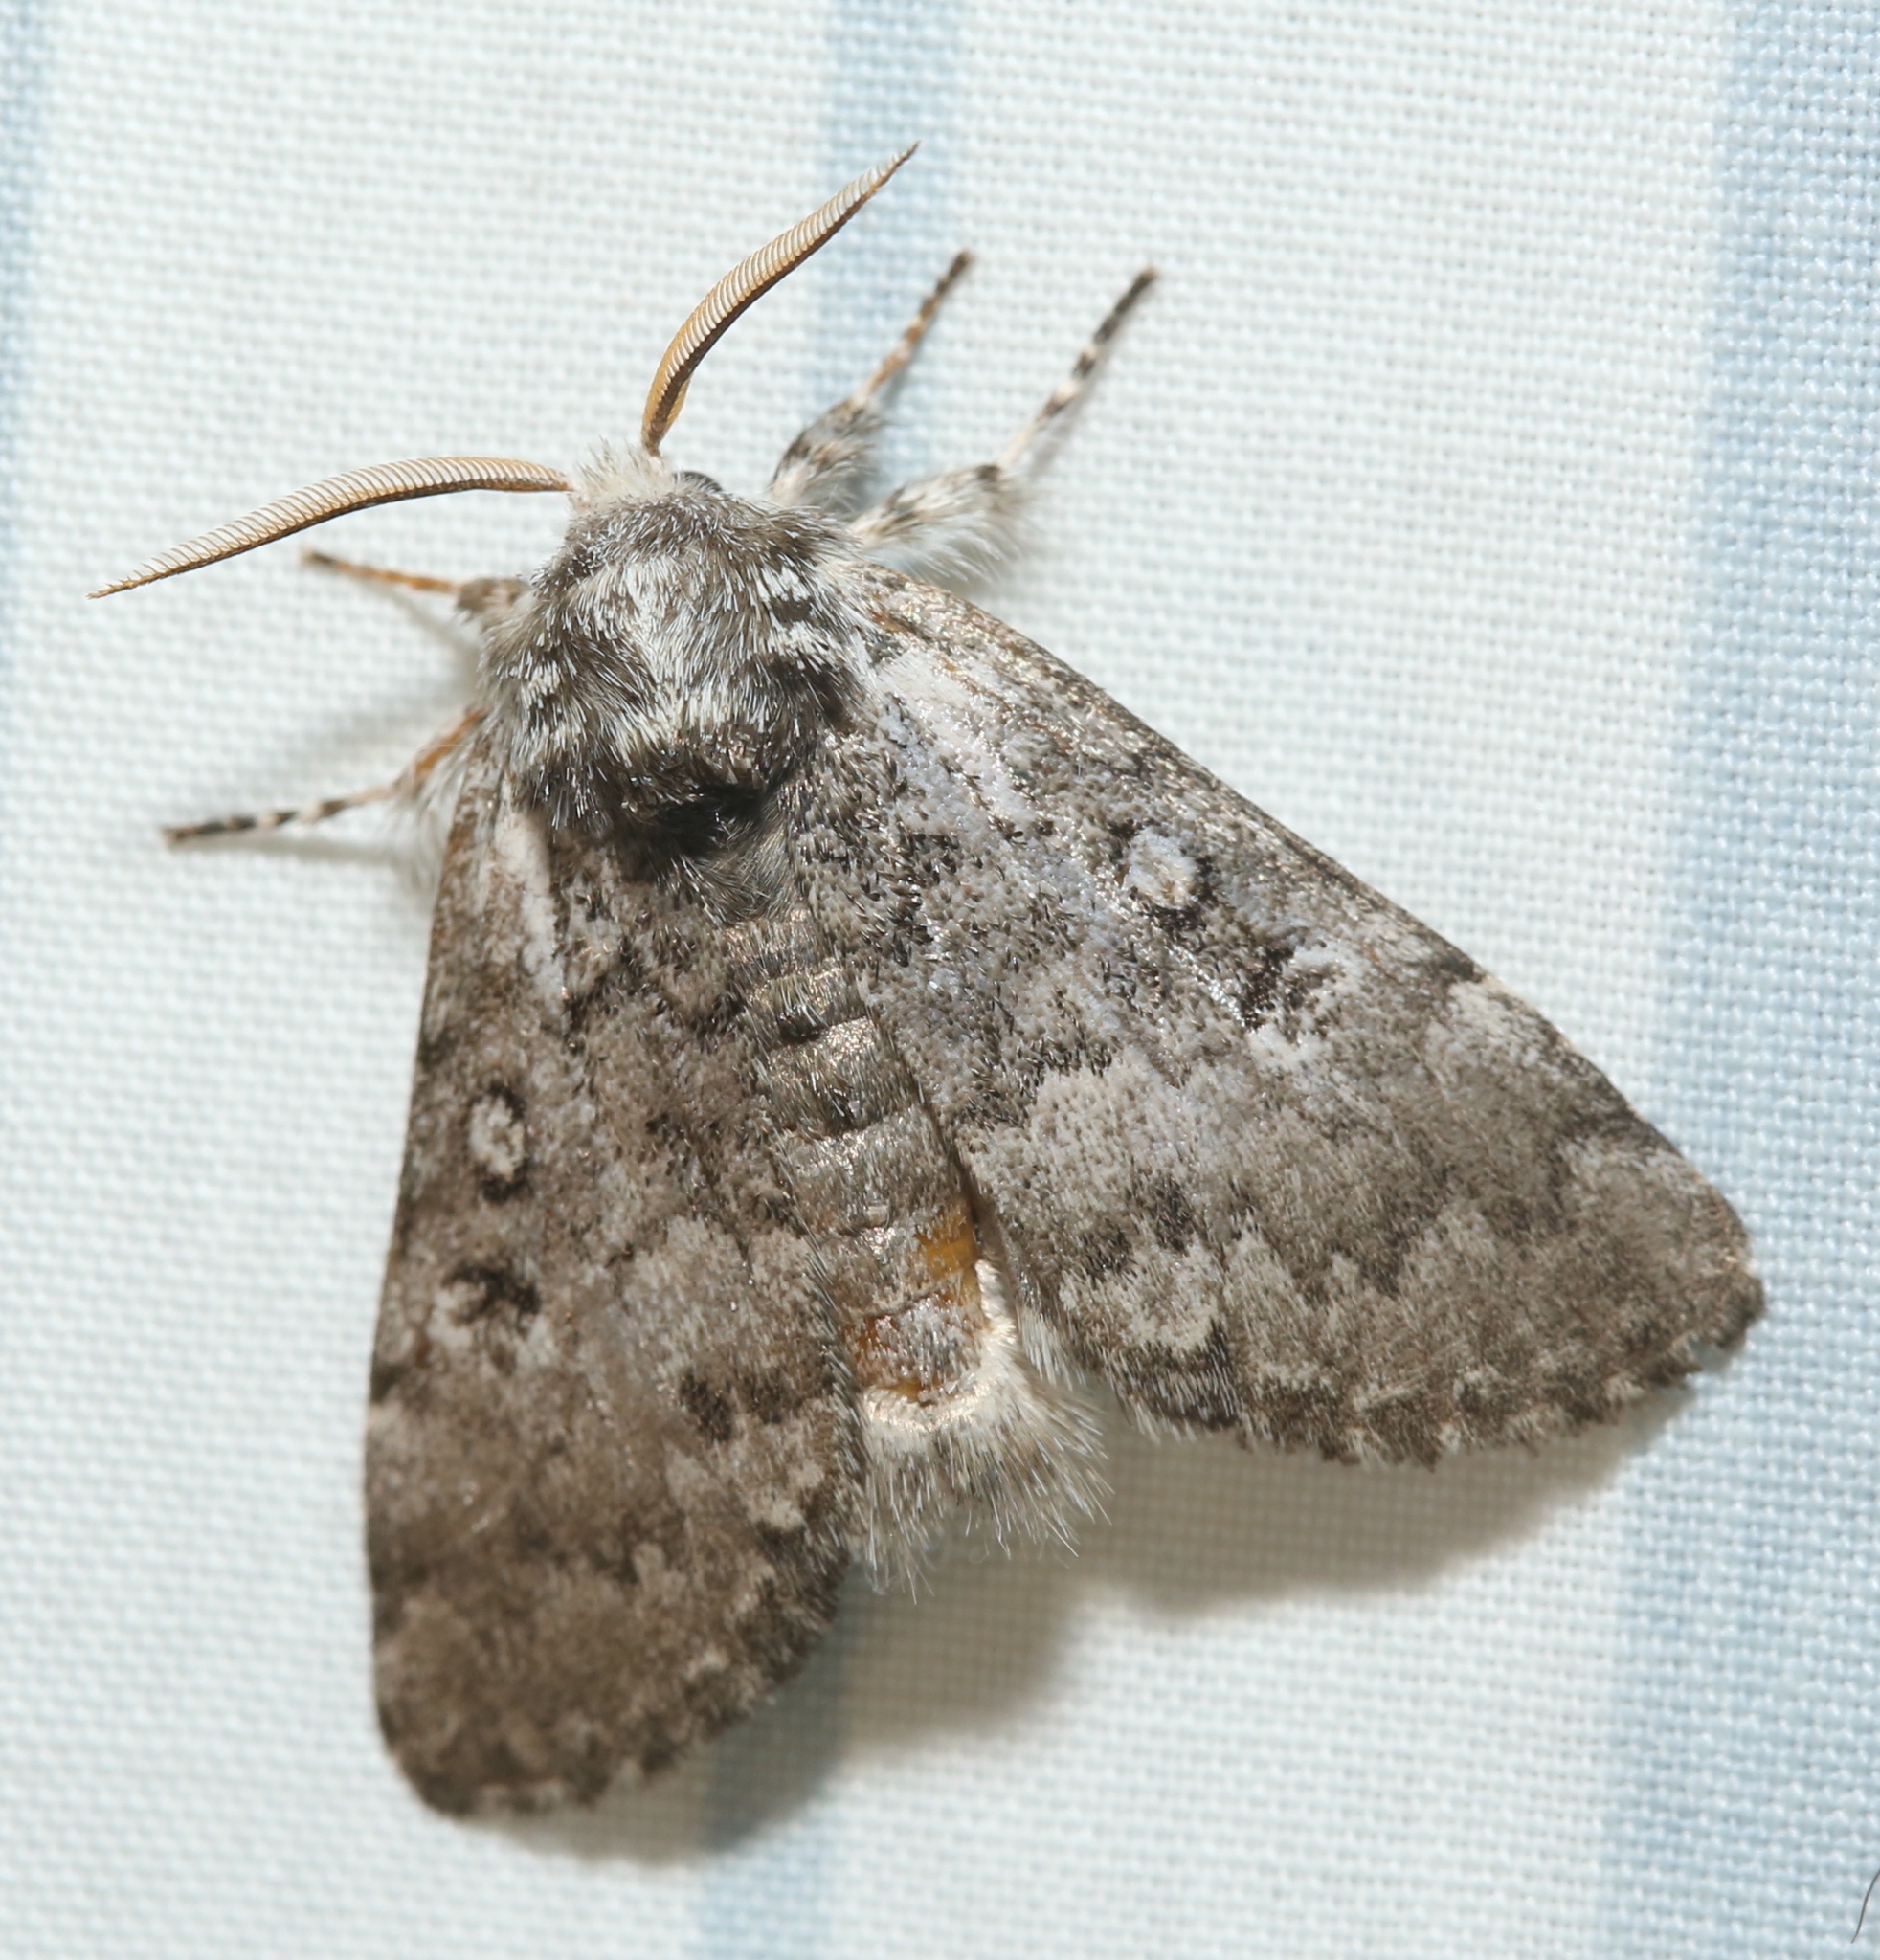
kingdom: Animalia
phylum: Arthropoda
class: Insecta
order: Lepidoptera
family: Noctuidae
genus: Colocasia
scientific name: Colocasia propinquilinea
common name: Close-banded demas
